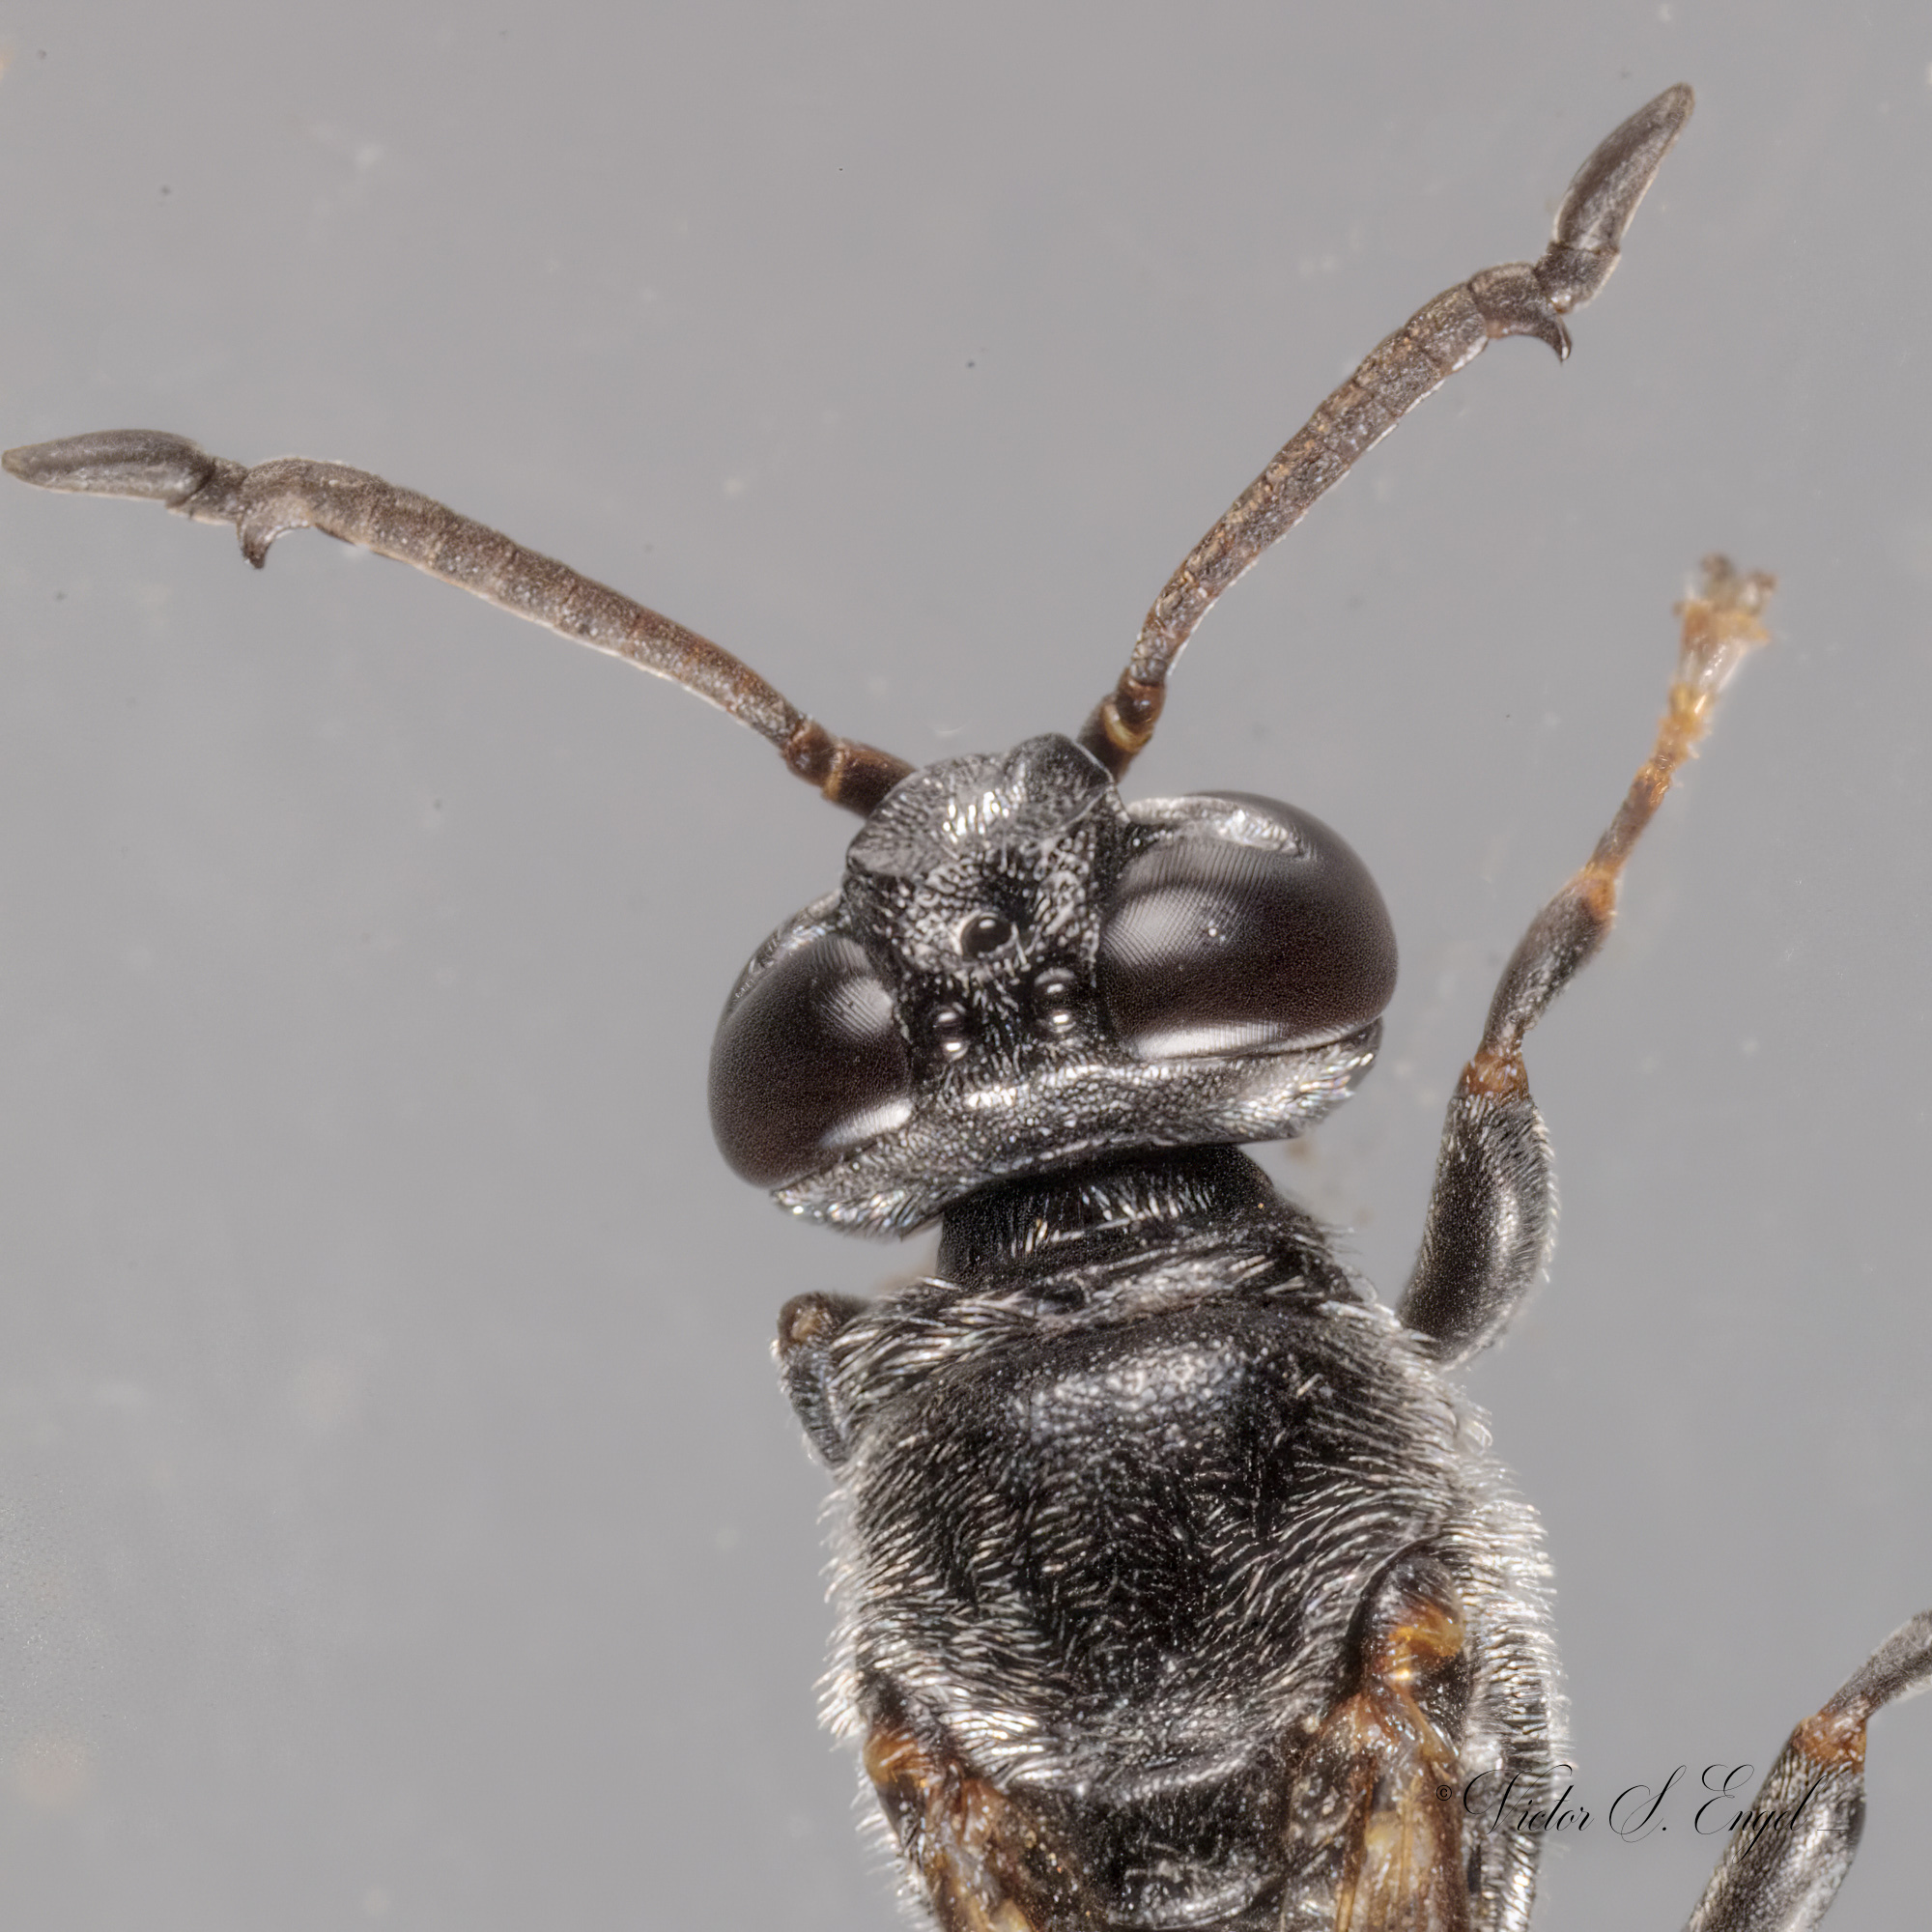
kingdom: Animalia
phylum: Arthropoda
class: Insecta
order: Hymenoptera
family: Crabronidae
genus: Trypoxylon
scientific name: Trypoxylon punctivertex
